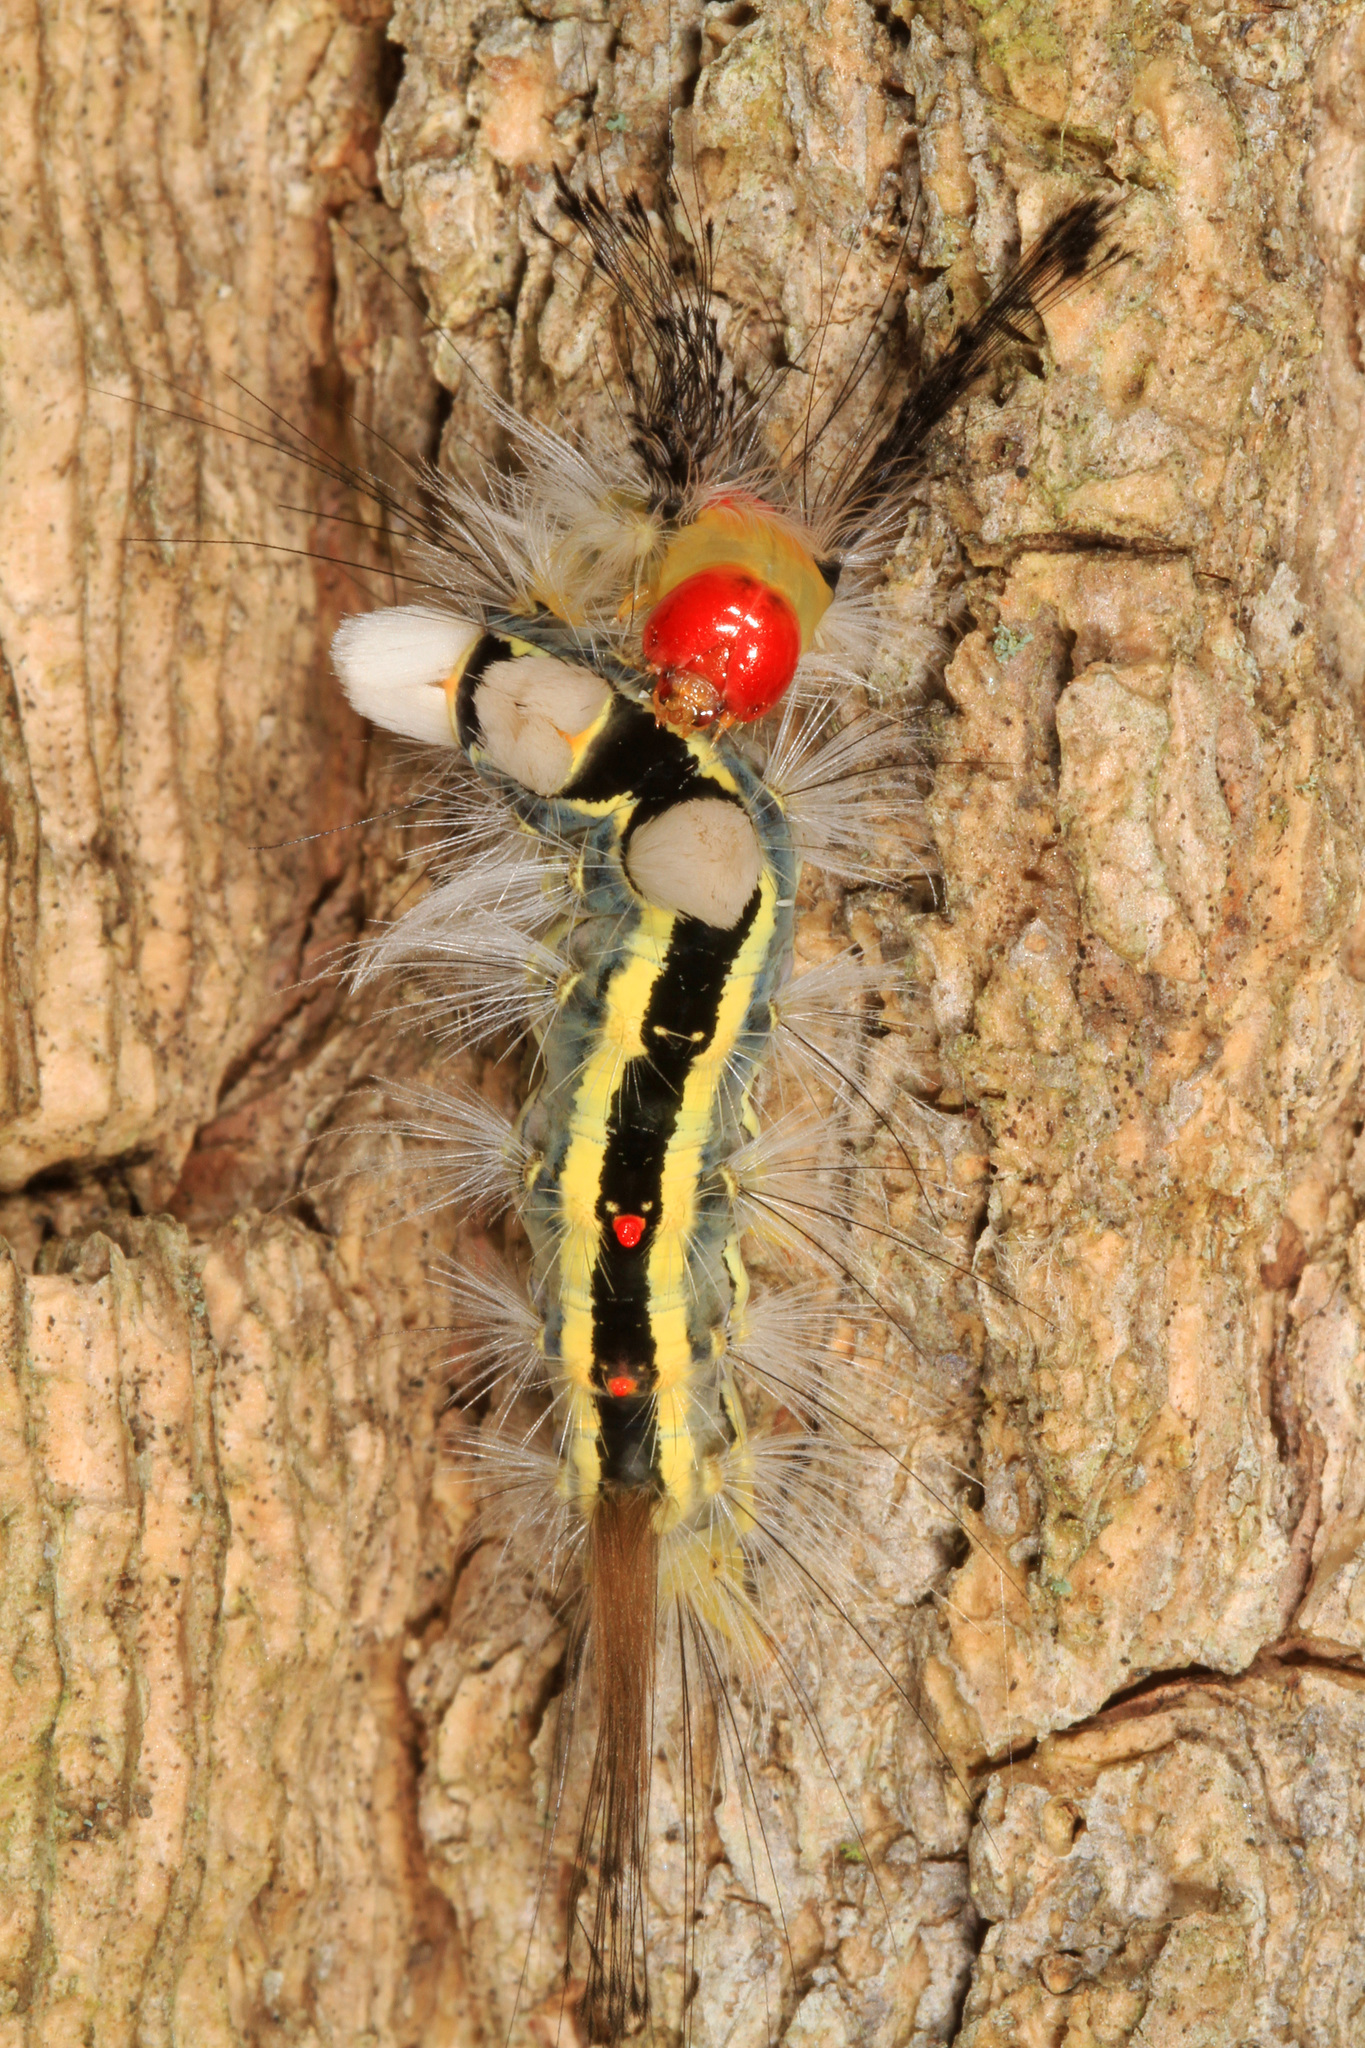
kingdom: Animalia
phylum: Arthropoda
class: Insecta
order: Lepidoptera
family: Erebidae
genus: Orgyia
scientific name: Orgyia leucostigma
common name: White-marked tussock moth
